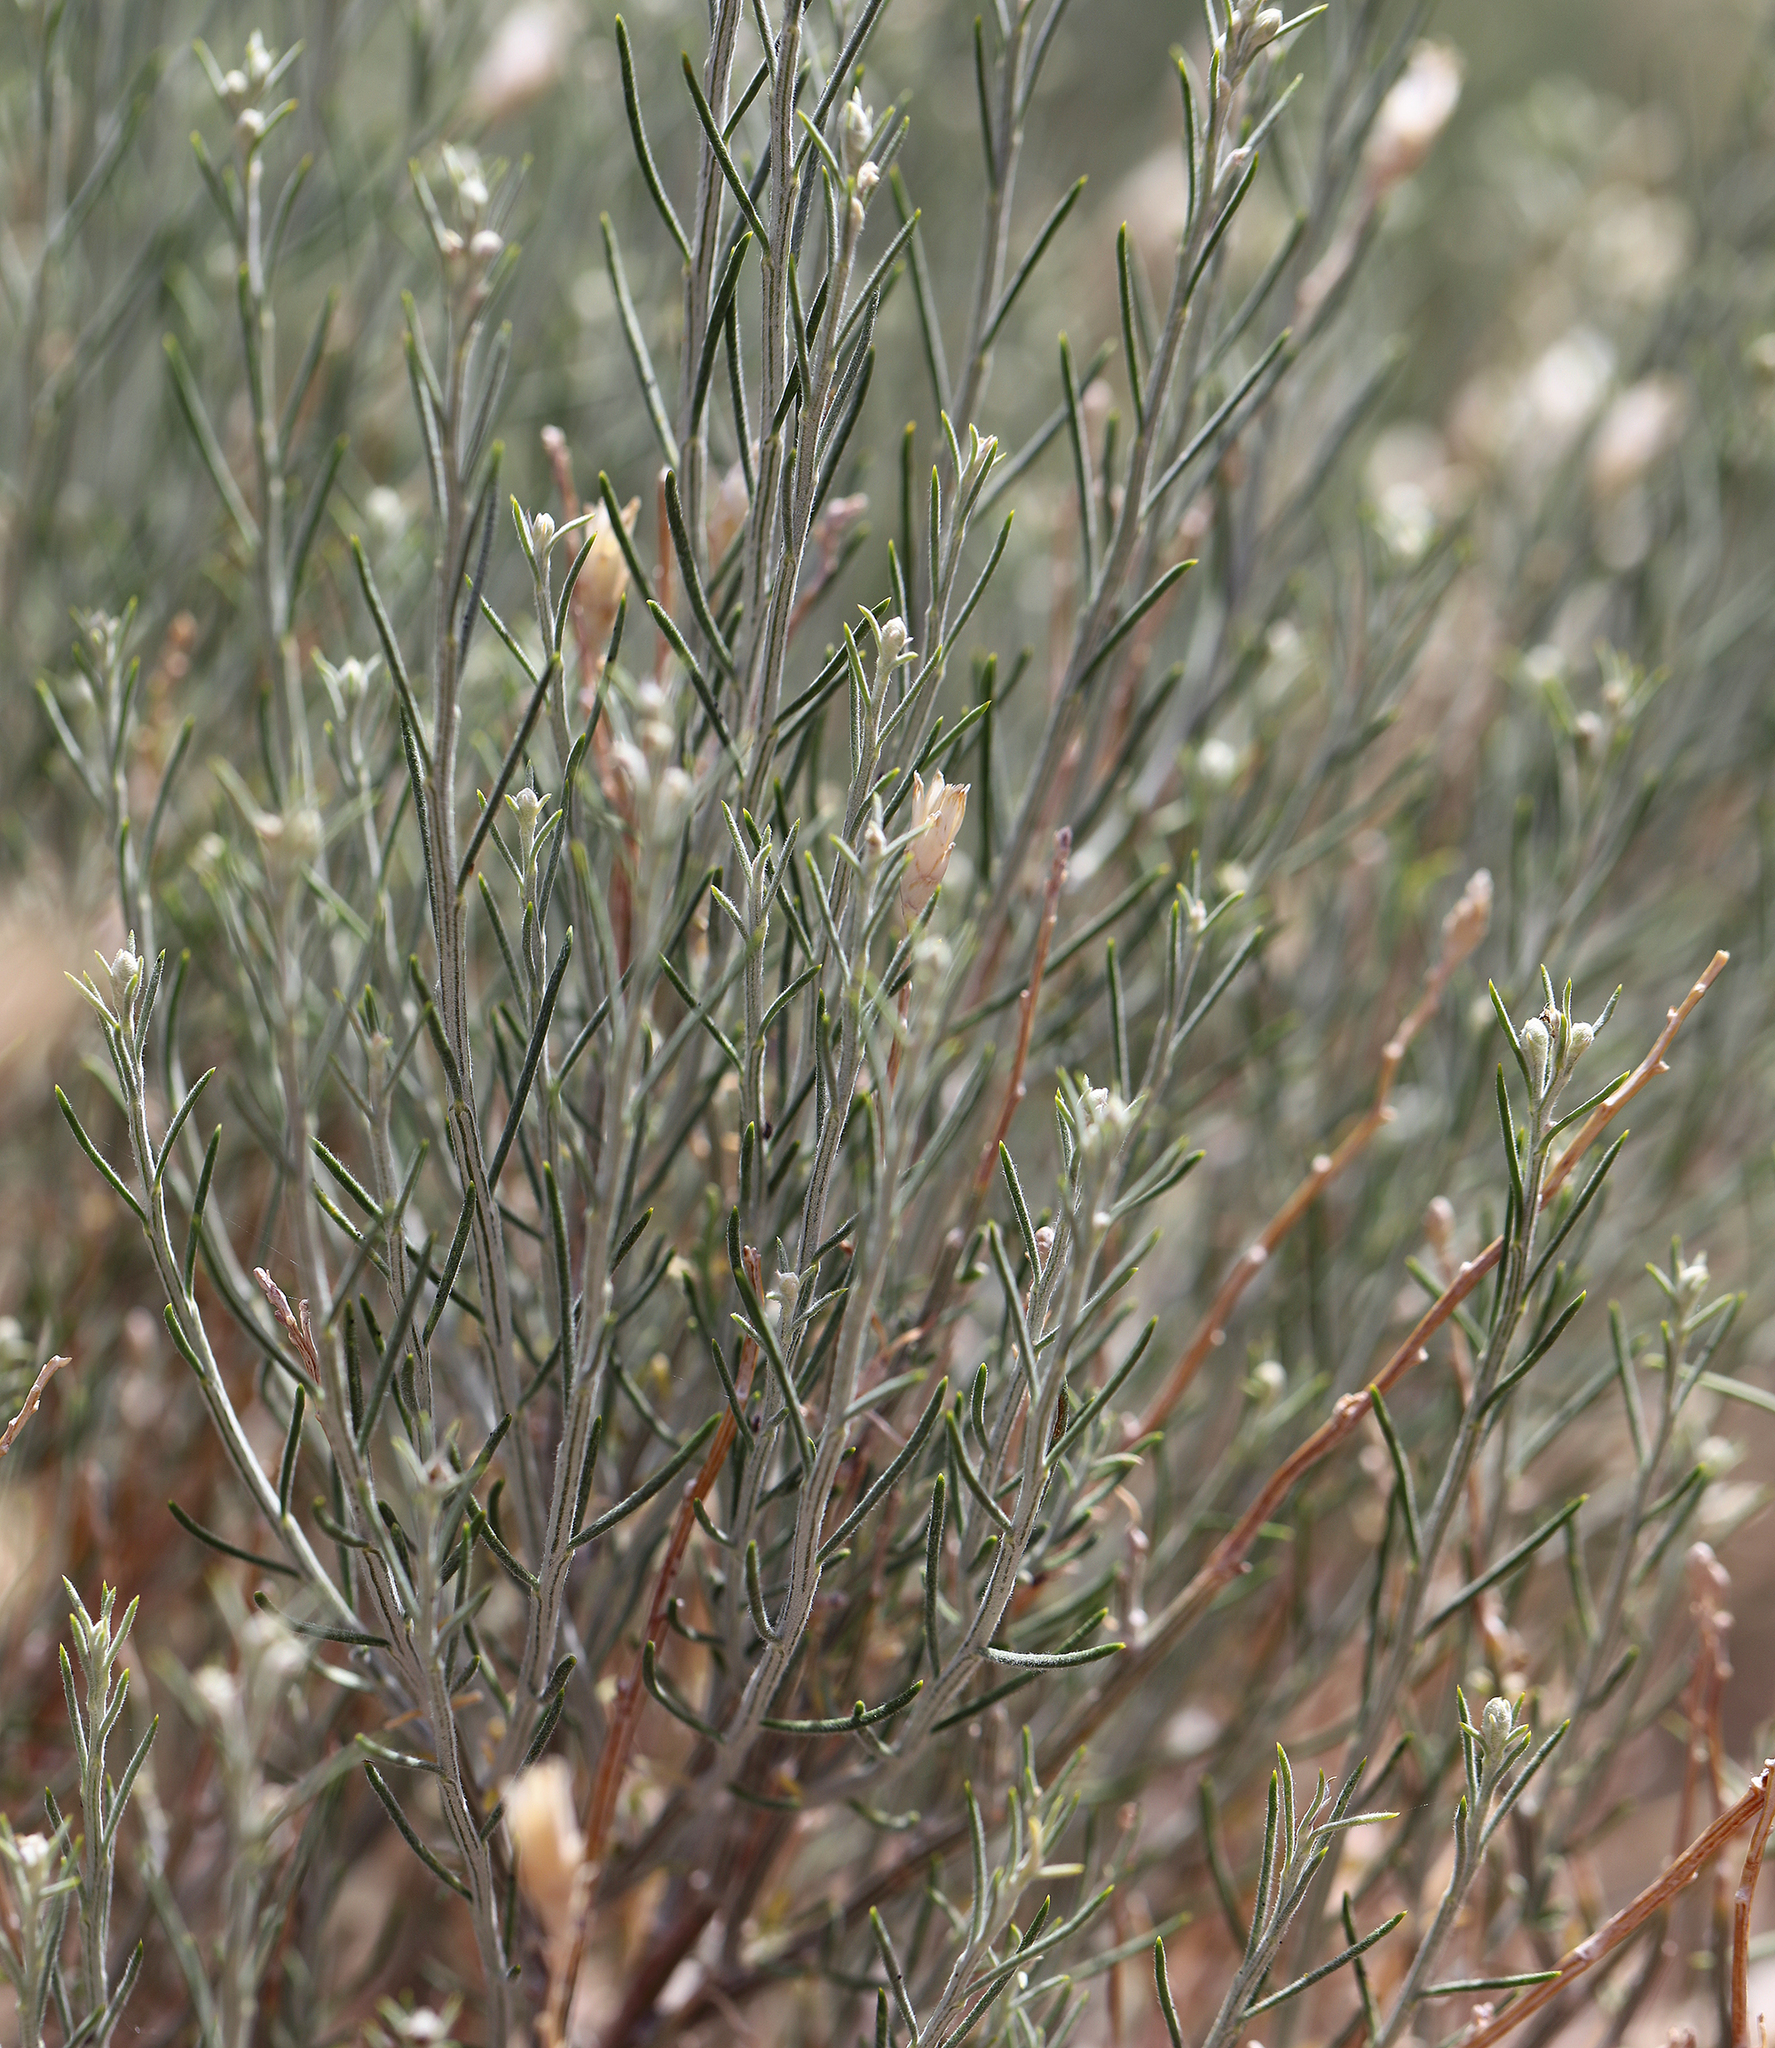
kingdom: Plantae
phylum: Tracheophyta
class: Magnoliopsida
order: Asterales
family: Asteraceae
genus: Lepidospartum
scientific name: Lepidospartum latisquamum
